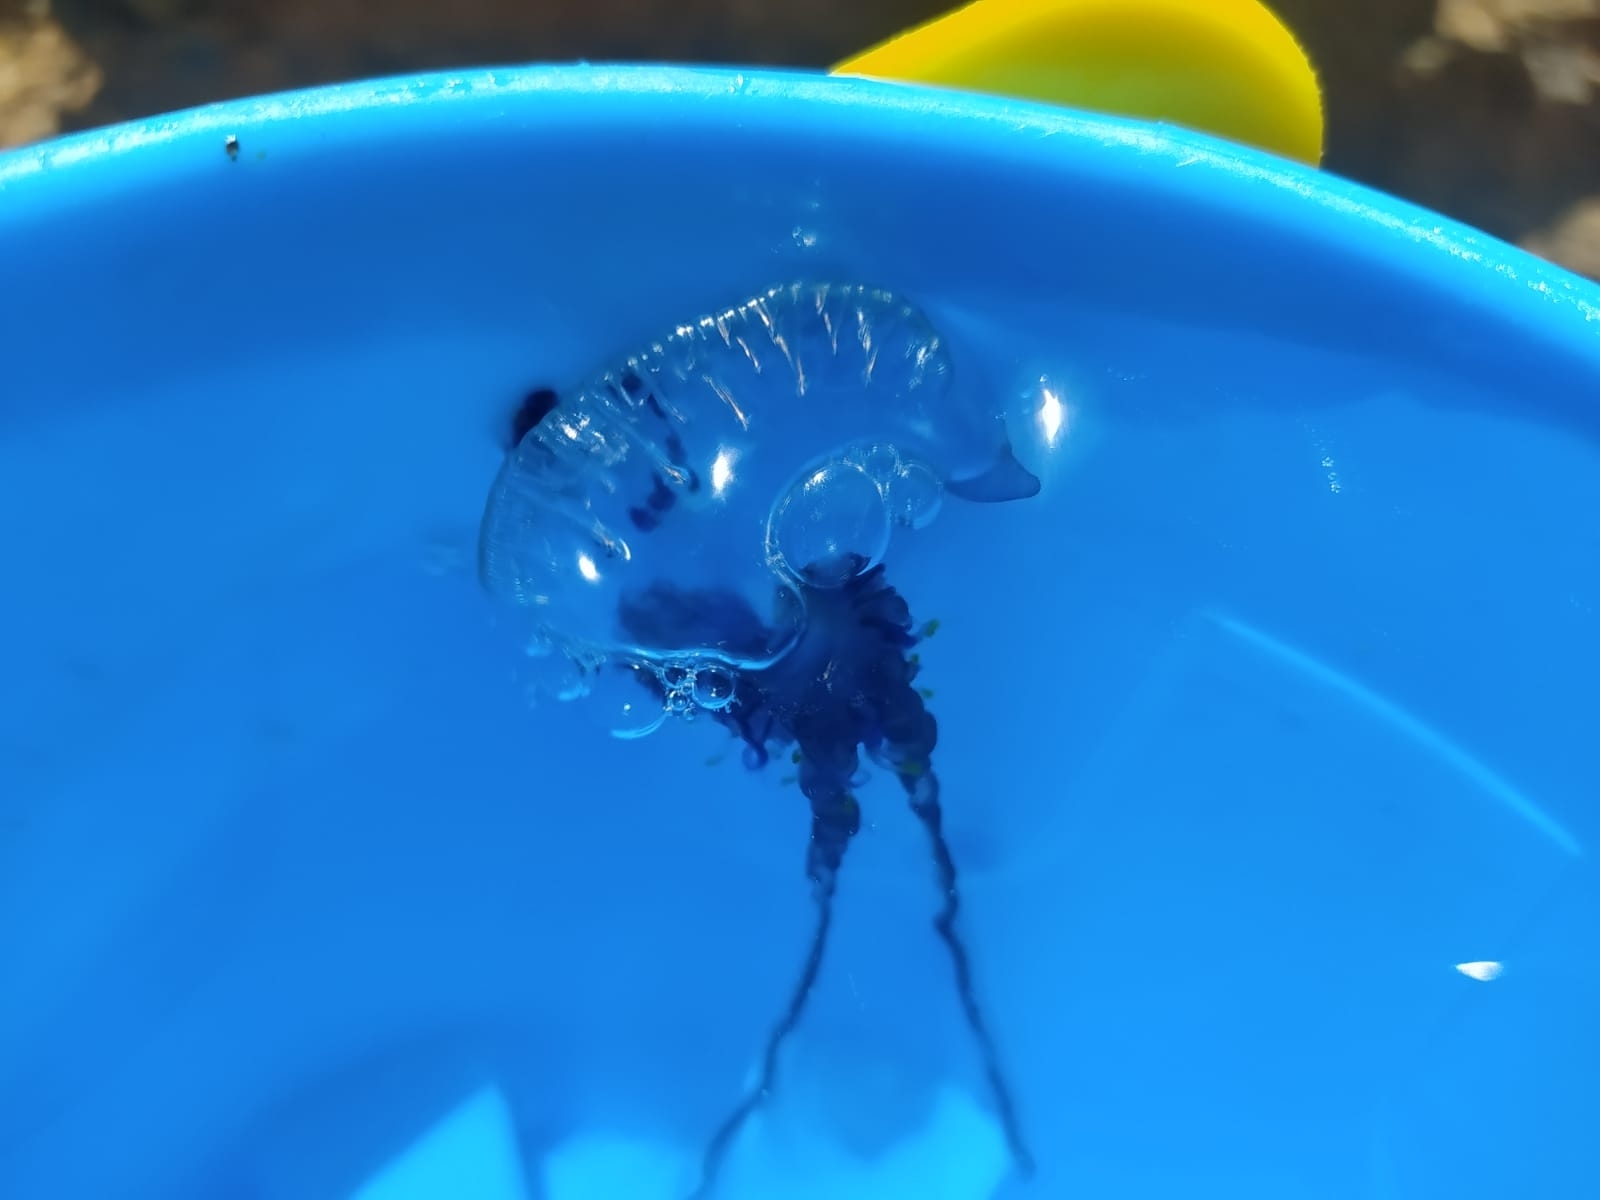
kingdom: Animalia
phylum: Cnidaria
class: Hydrozoa
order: Siphonophorae
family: Physaliidae
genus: Physalia
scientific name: Physalia physalis
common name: Portuguese man-of-war
